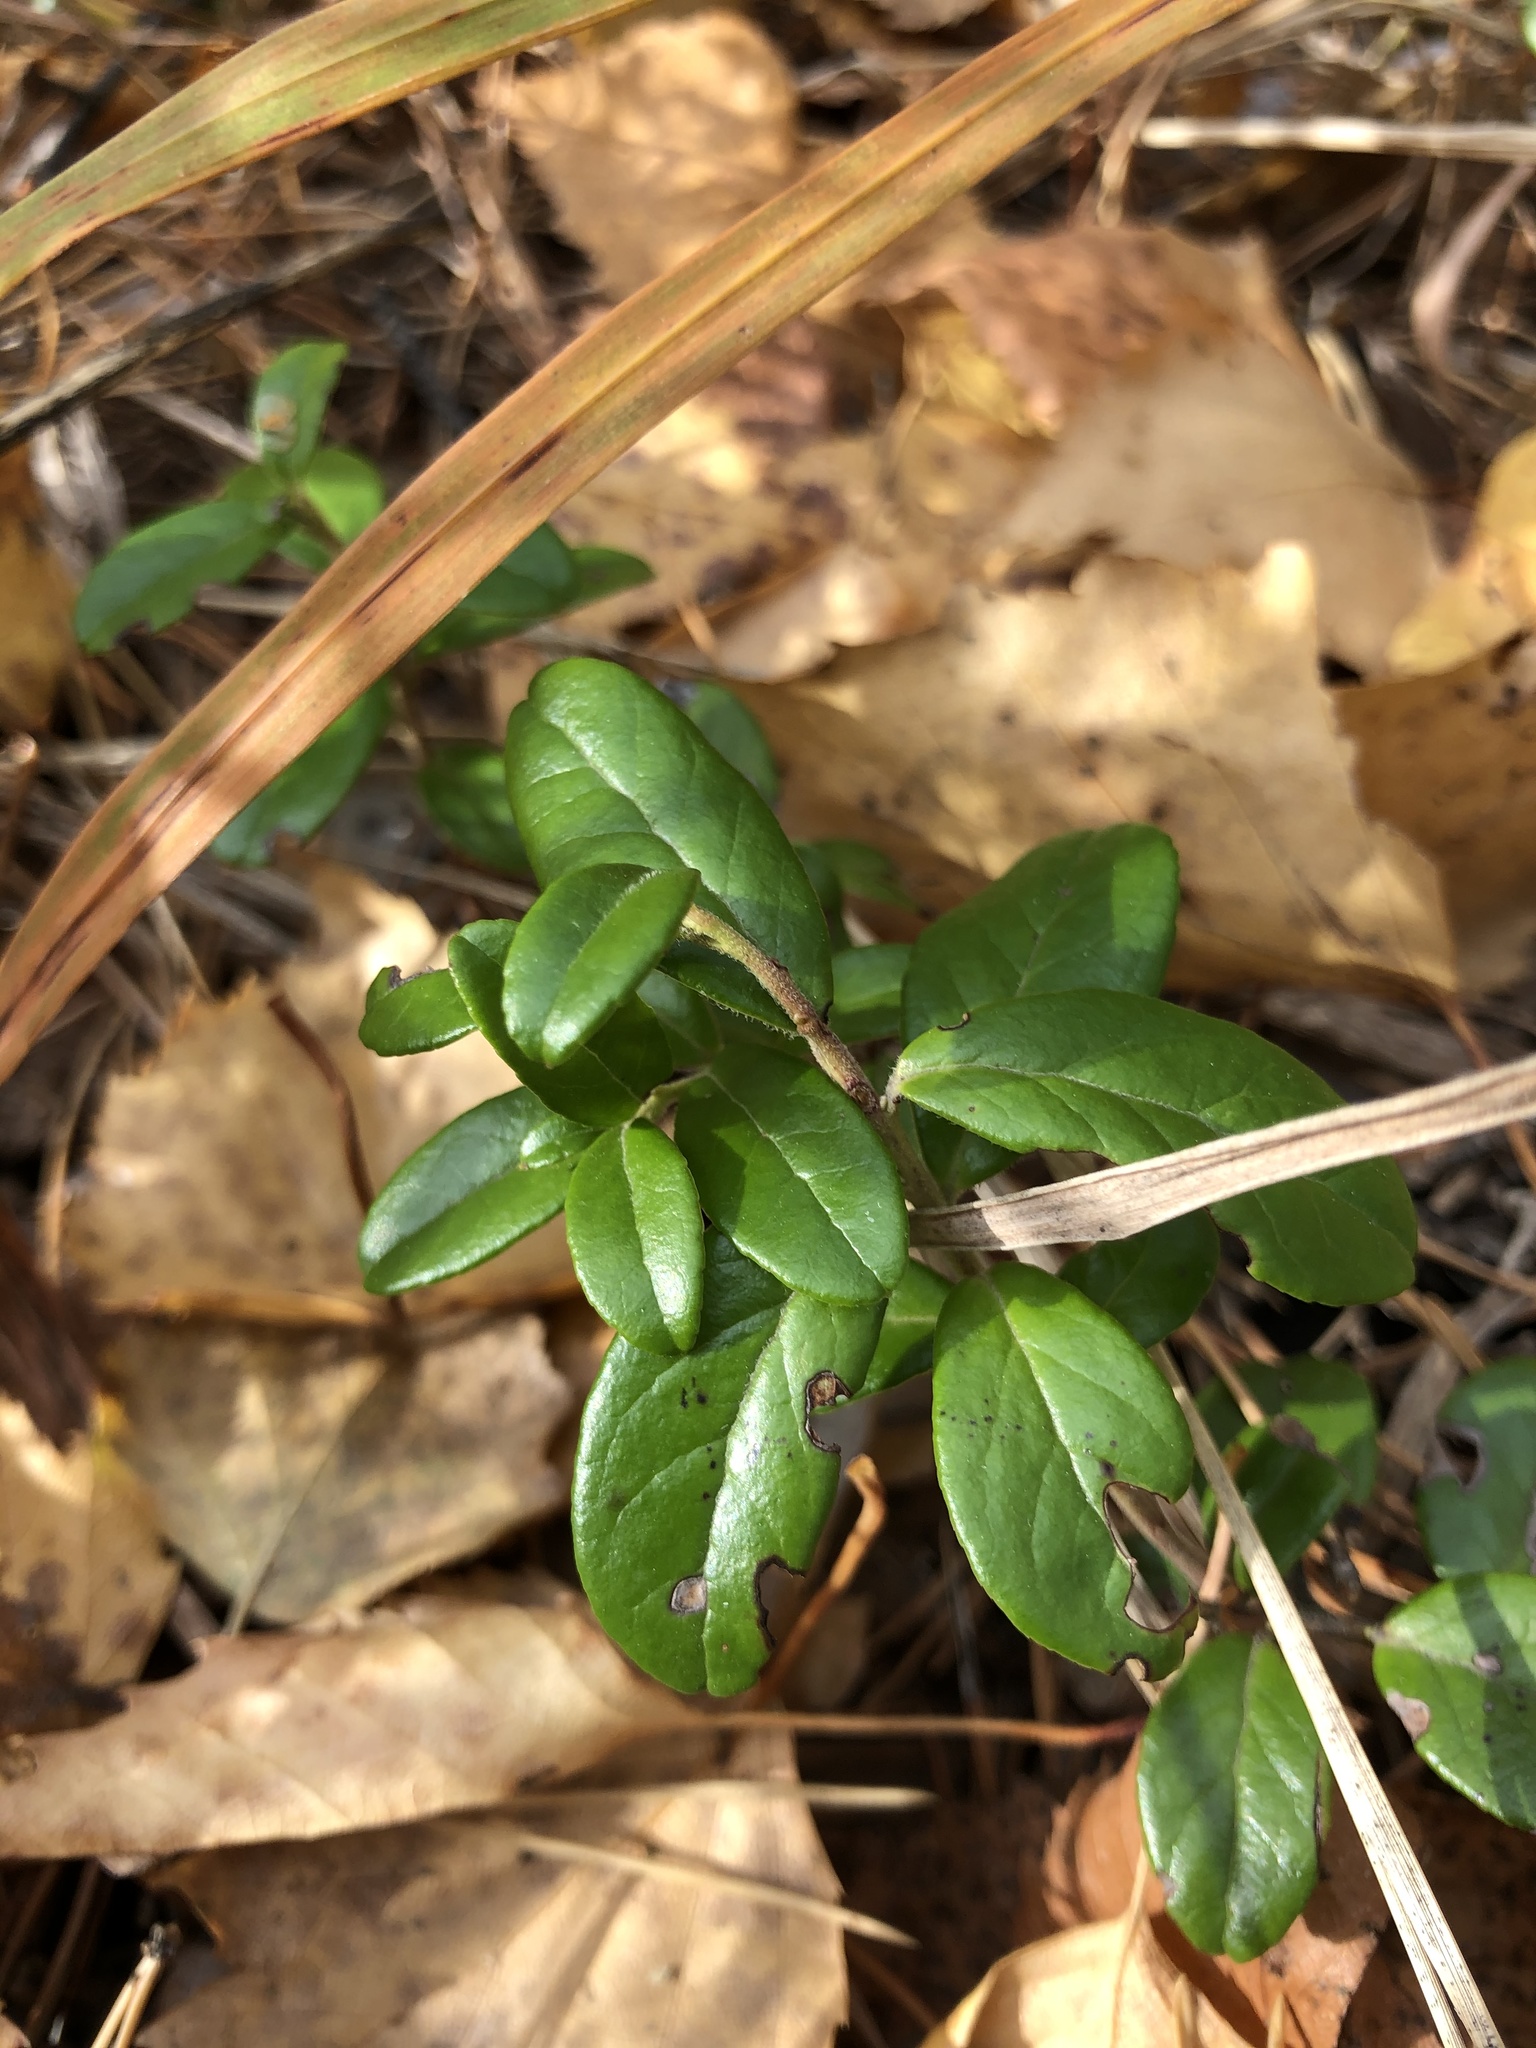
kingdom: Plantae
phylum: Tracheophyta
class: Magnoliopsida
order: Ericales
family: Ericaceae
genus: Vaccinium
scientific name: Vaccinium vitis-idaea
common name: Cowberry
